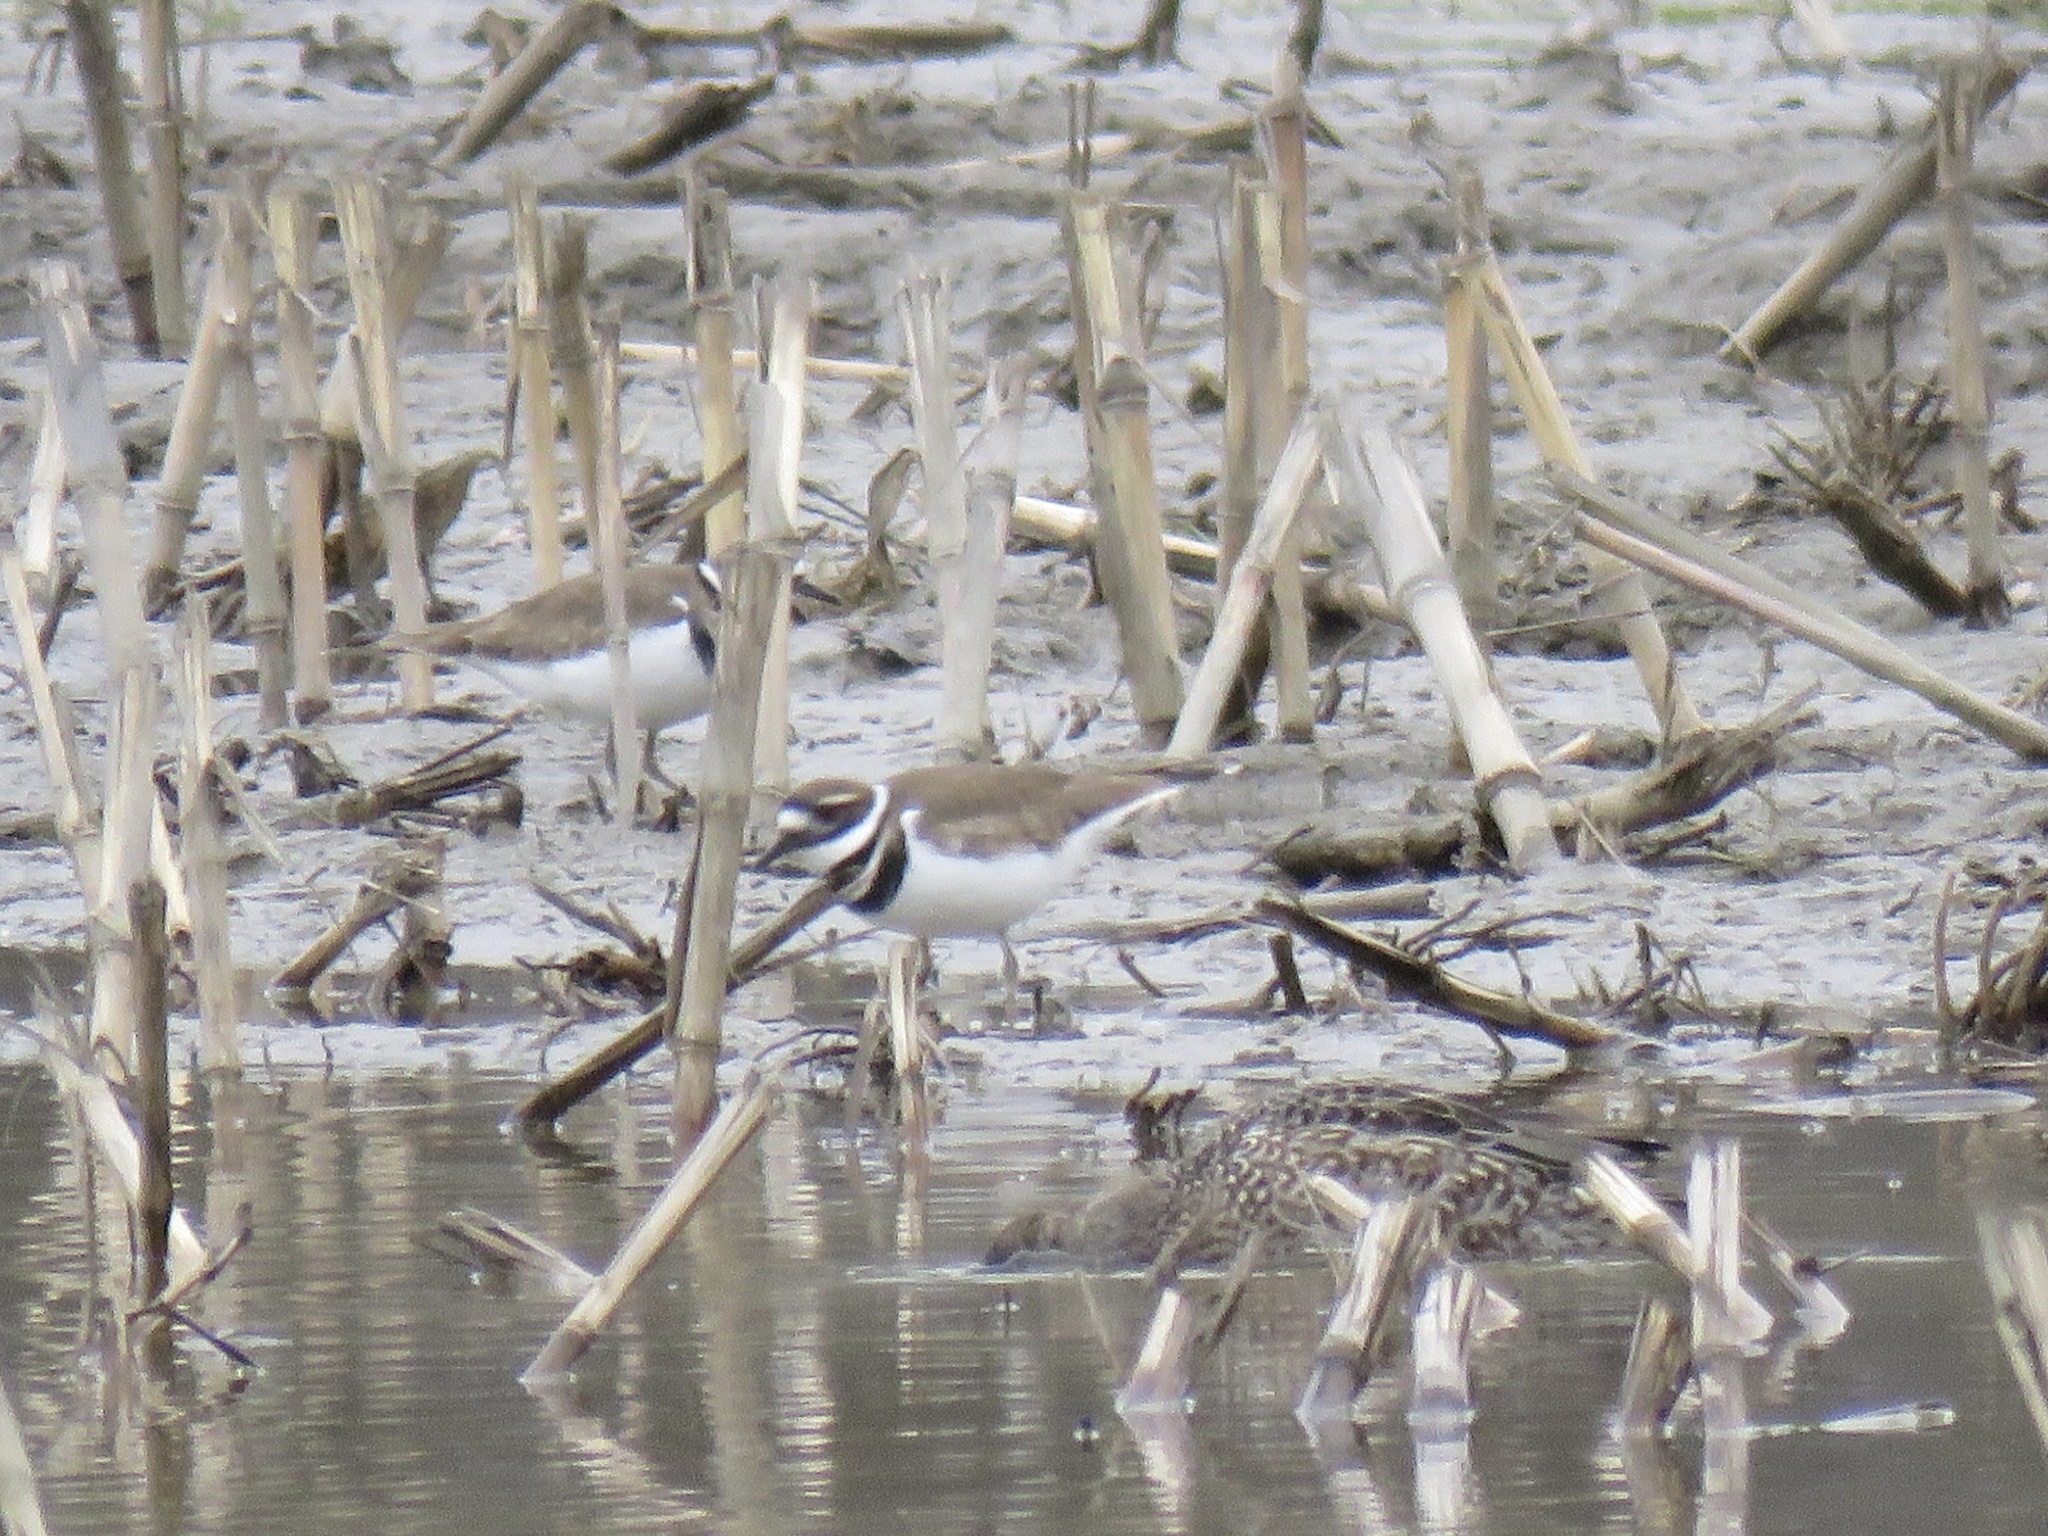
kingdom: Animalia
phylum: Chordata
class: Aves
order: Charadriiformes
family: Charadriidae
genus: Charadrius
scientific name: Charadrius vociferus
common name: Killdeer
